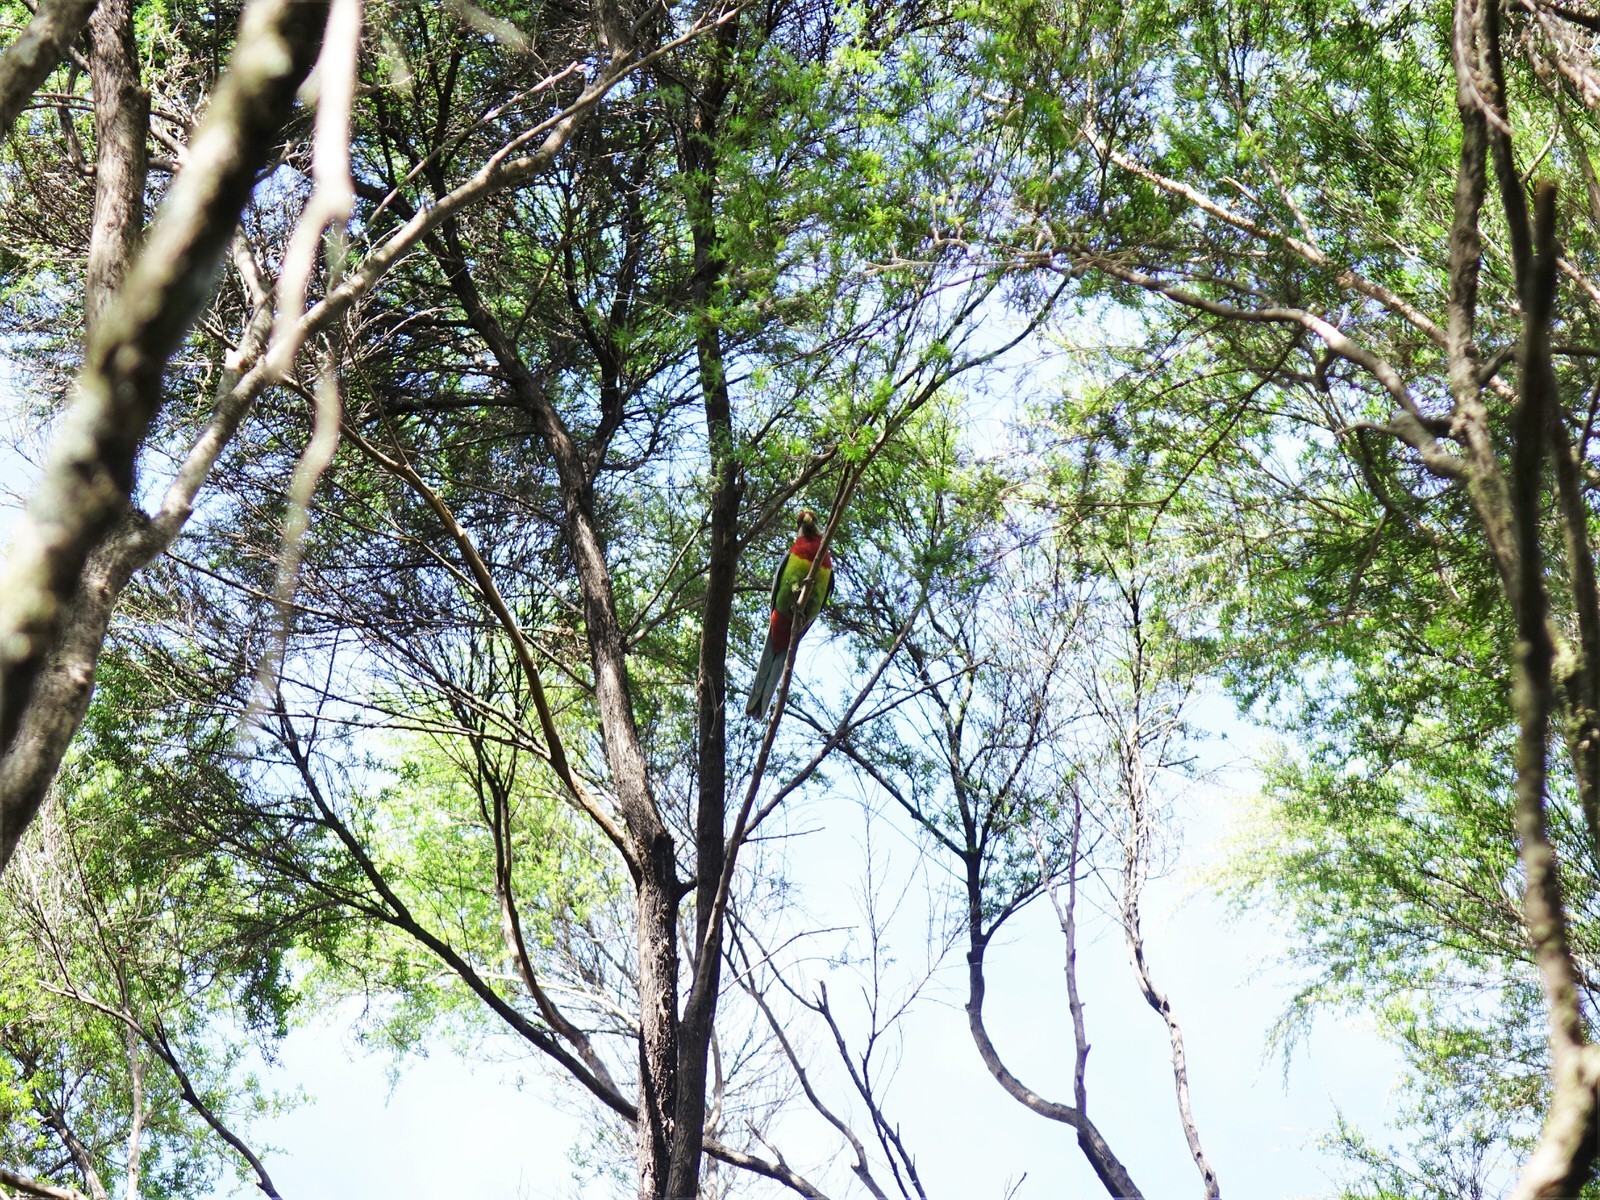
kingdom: Animalia
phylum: Chordata
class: Aves
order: Psittaciformes
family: Psittacidae
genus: Platycercus
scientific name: Platycercus eximius
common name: Eastern rosella
